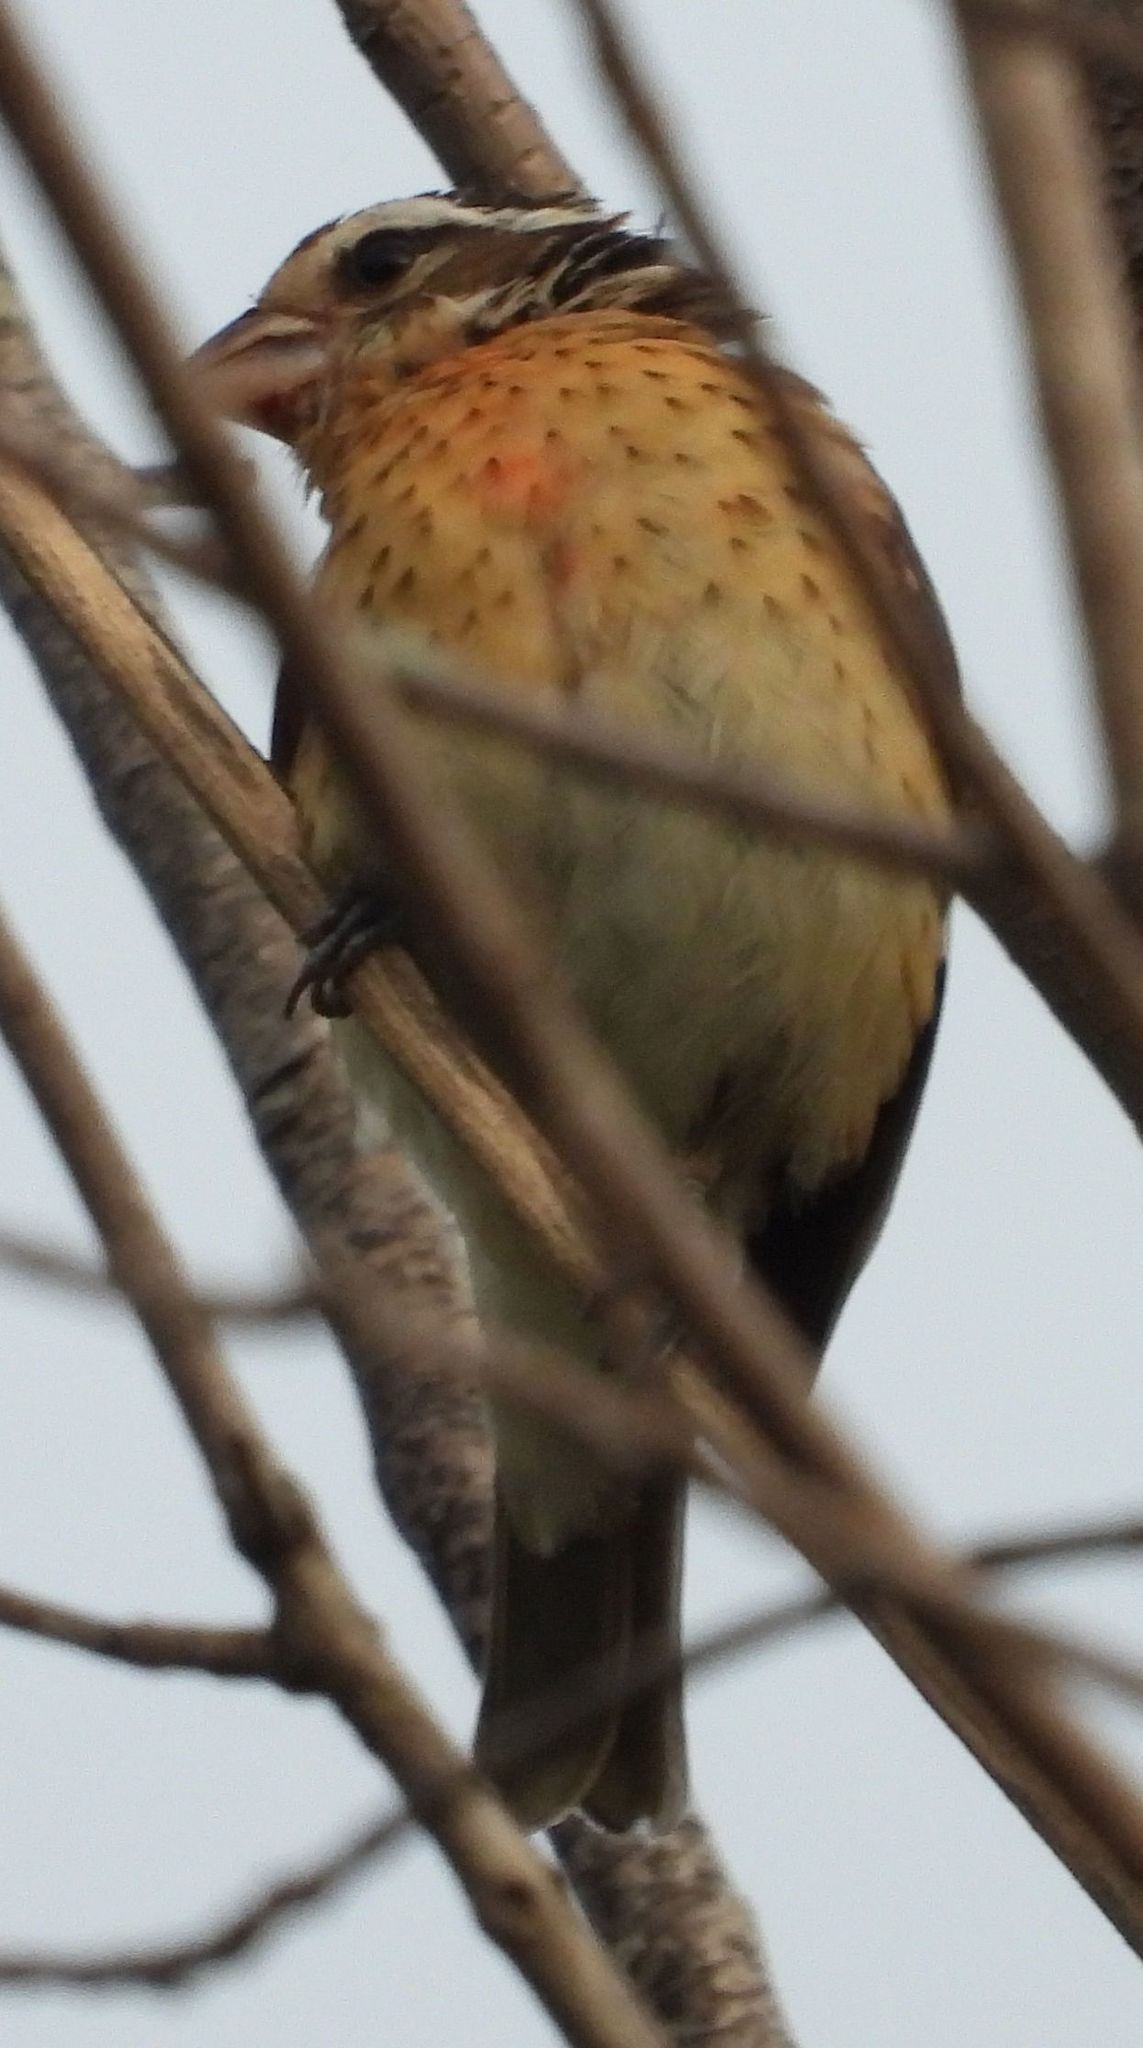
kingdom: Animalia
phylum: Chordata
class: Aves
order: Passeriformes
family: Cardinalidae
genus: Pheucticus
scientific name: Pheucticus ludovicianus
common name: Rose-breasted grosbeak
